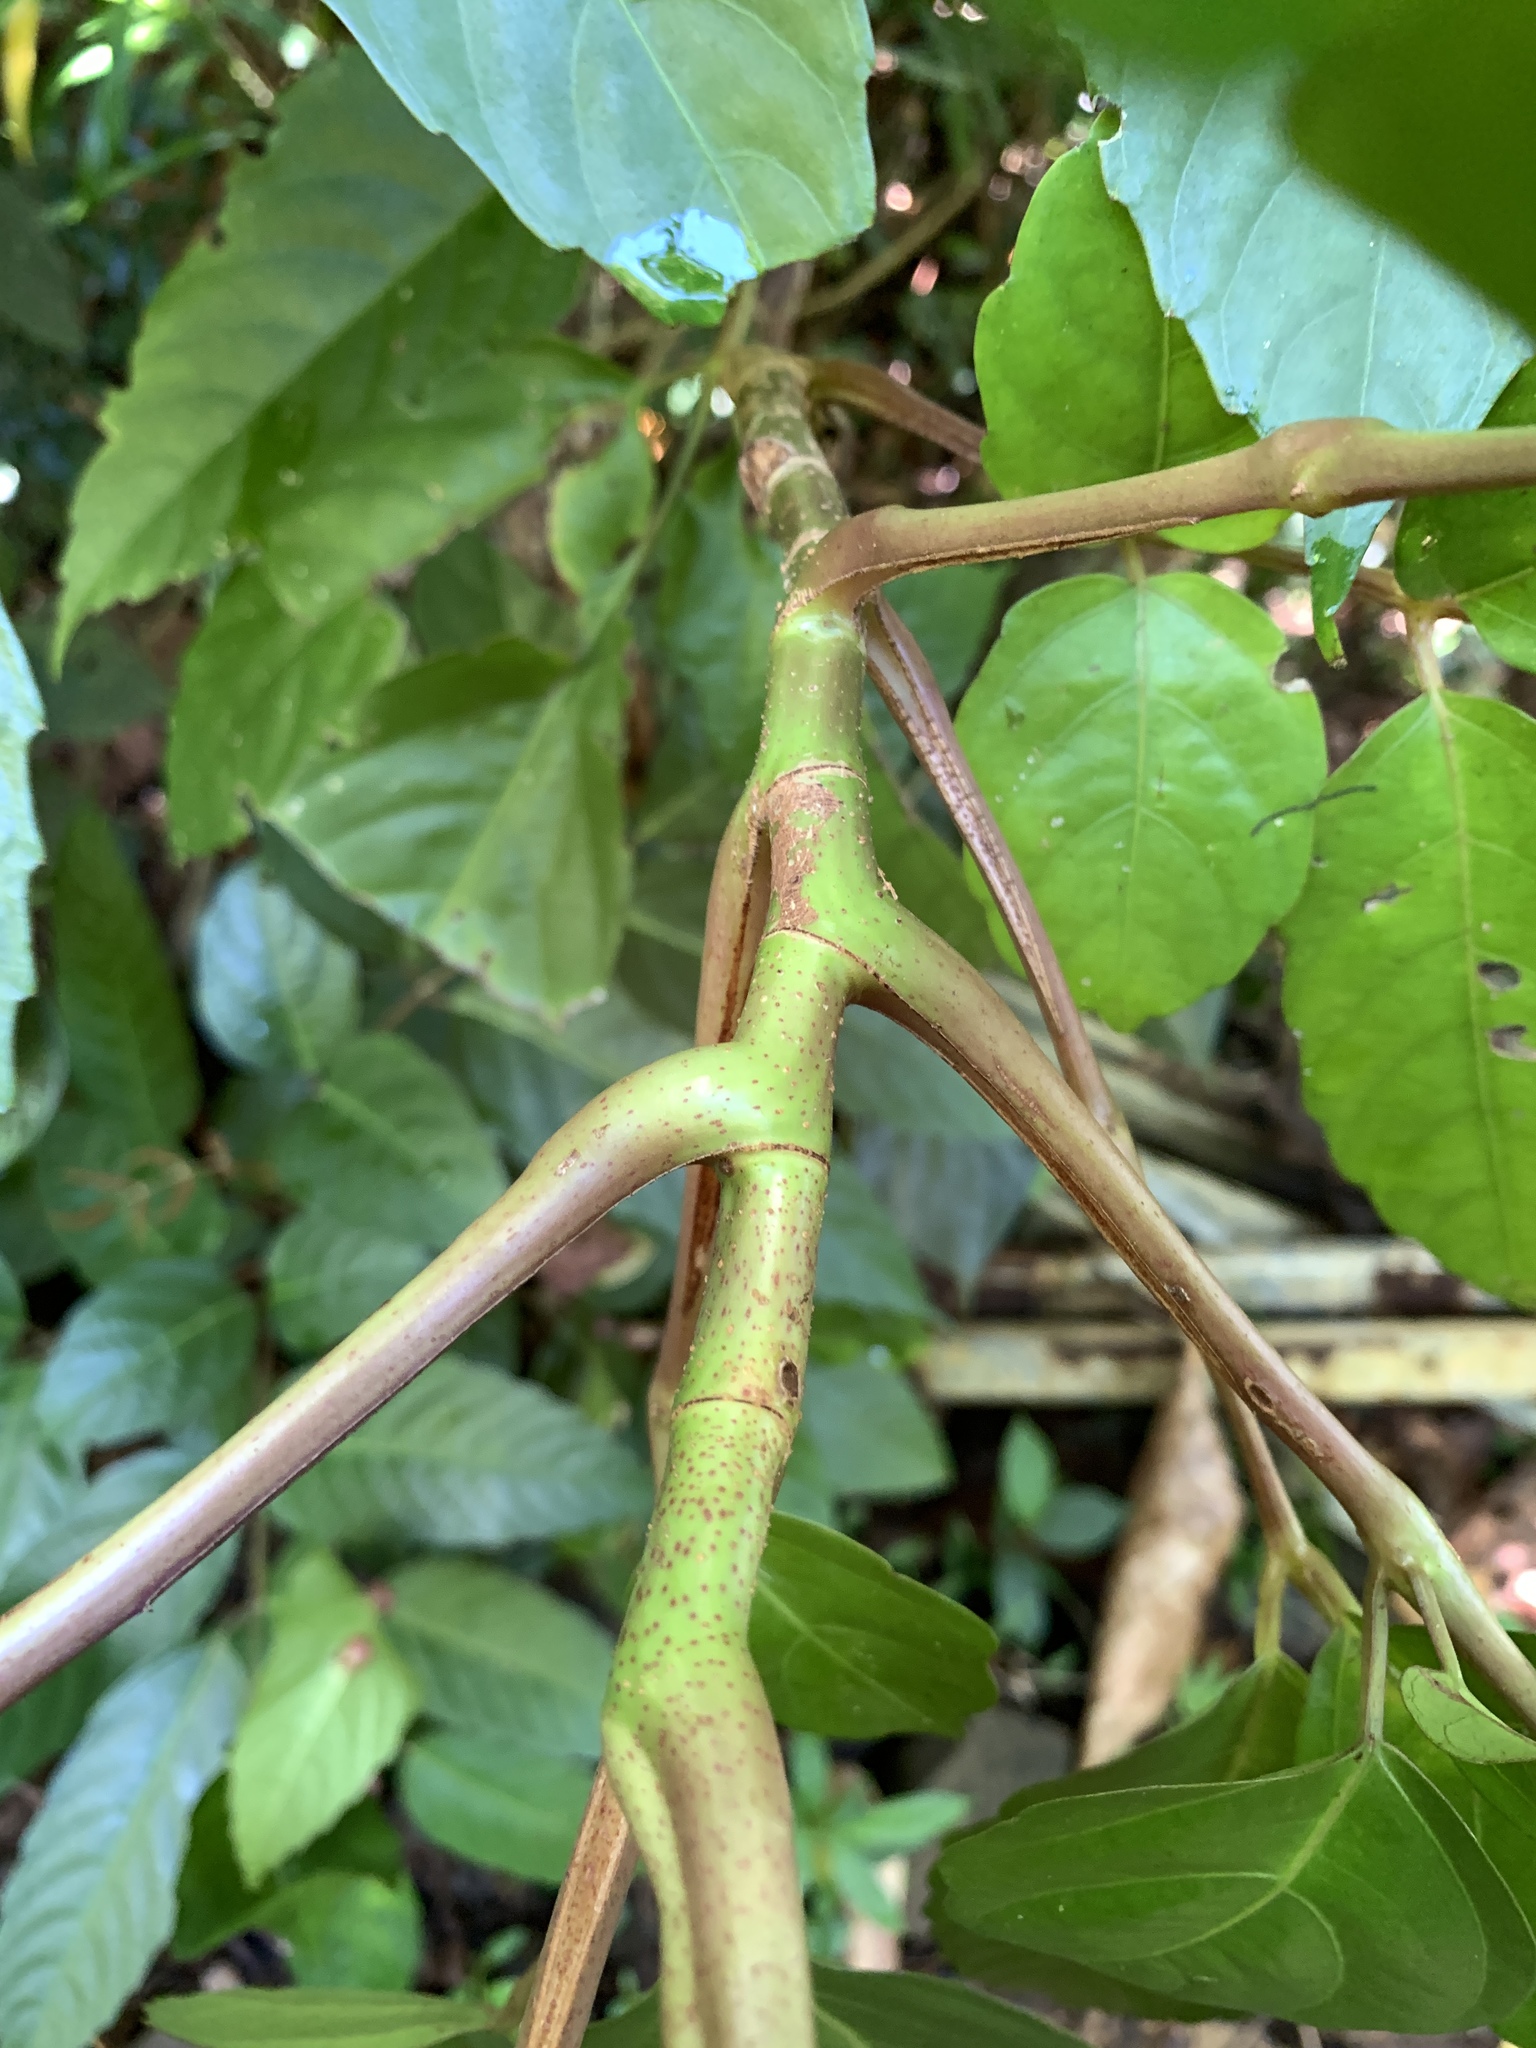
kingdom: Plantae
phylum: Tracheophyta
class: Magnoliopsida
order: Vitales
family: Vitaceae
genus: Leea
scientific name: Leea philippinensis
